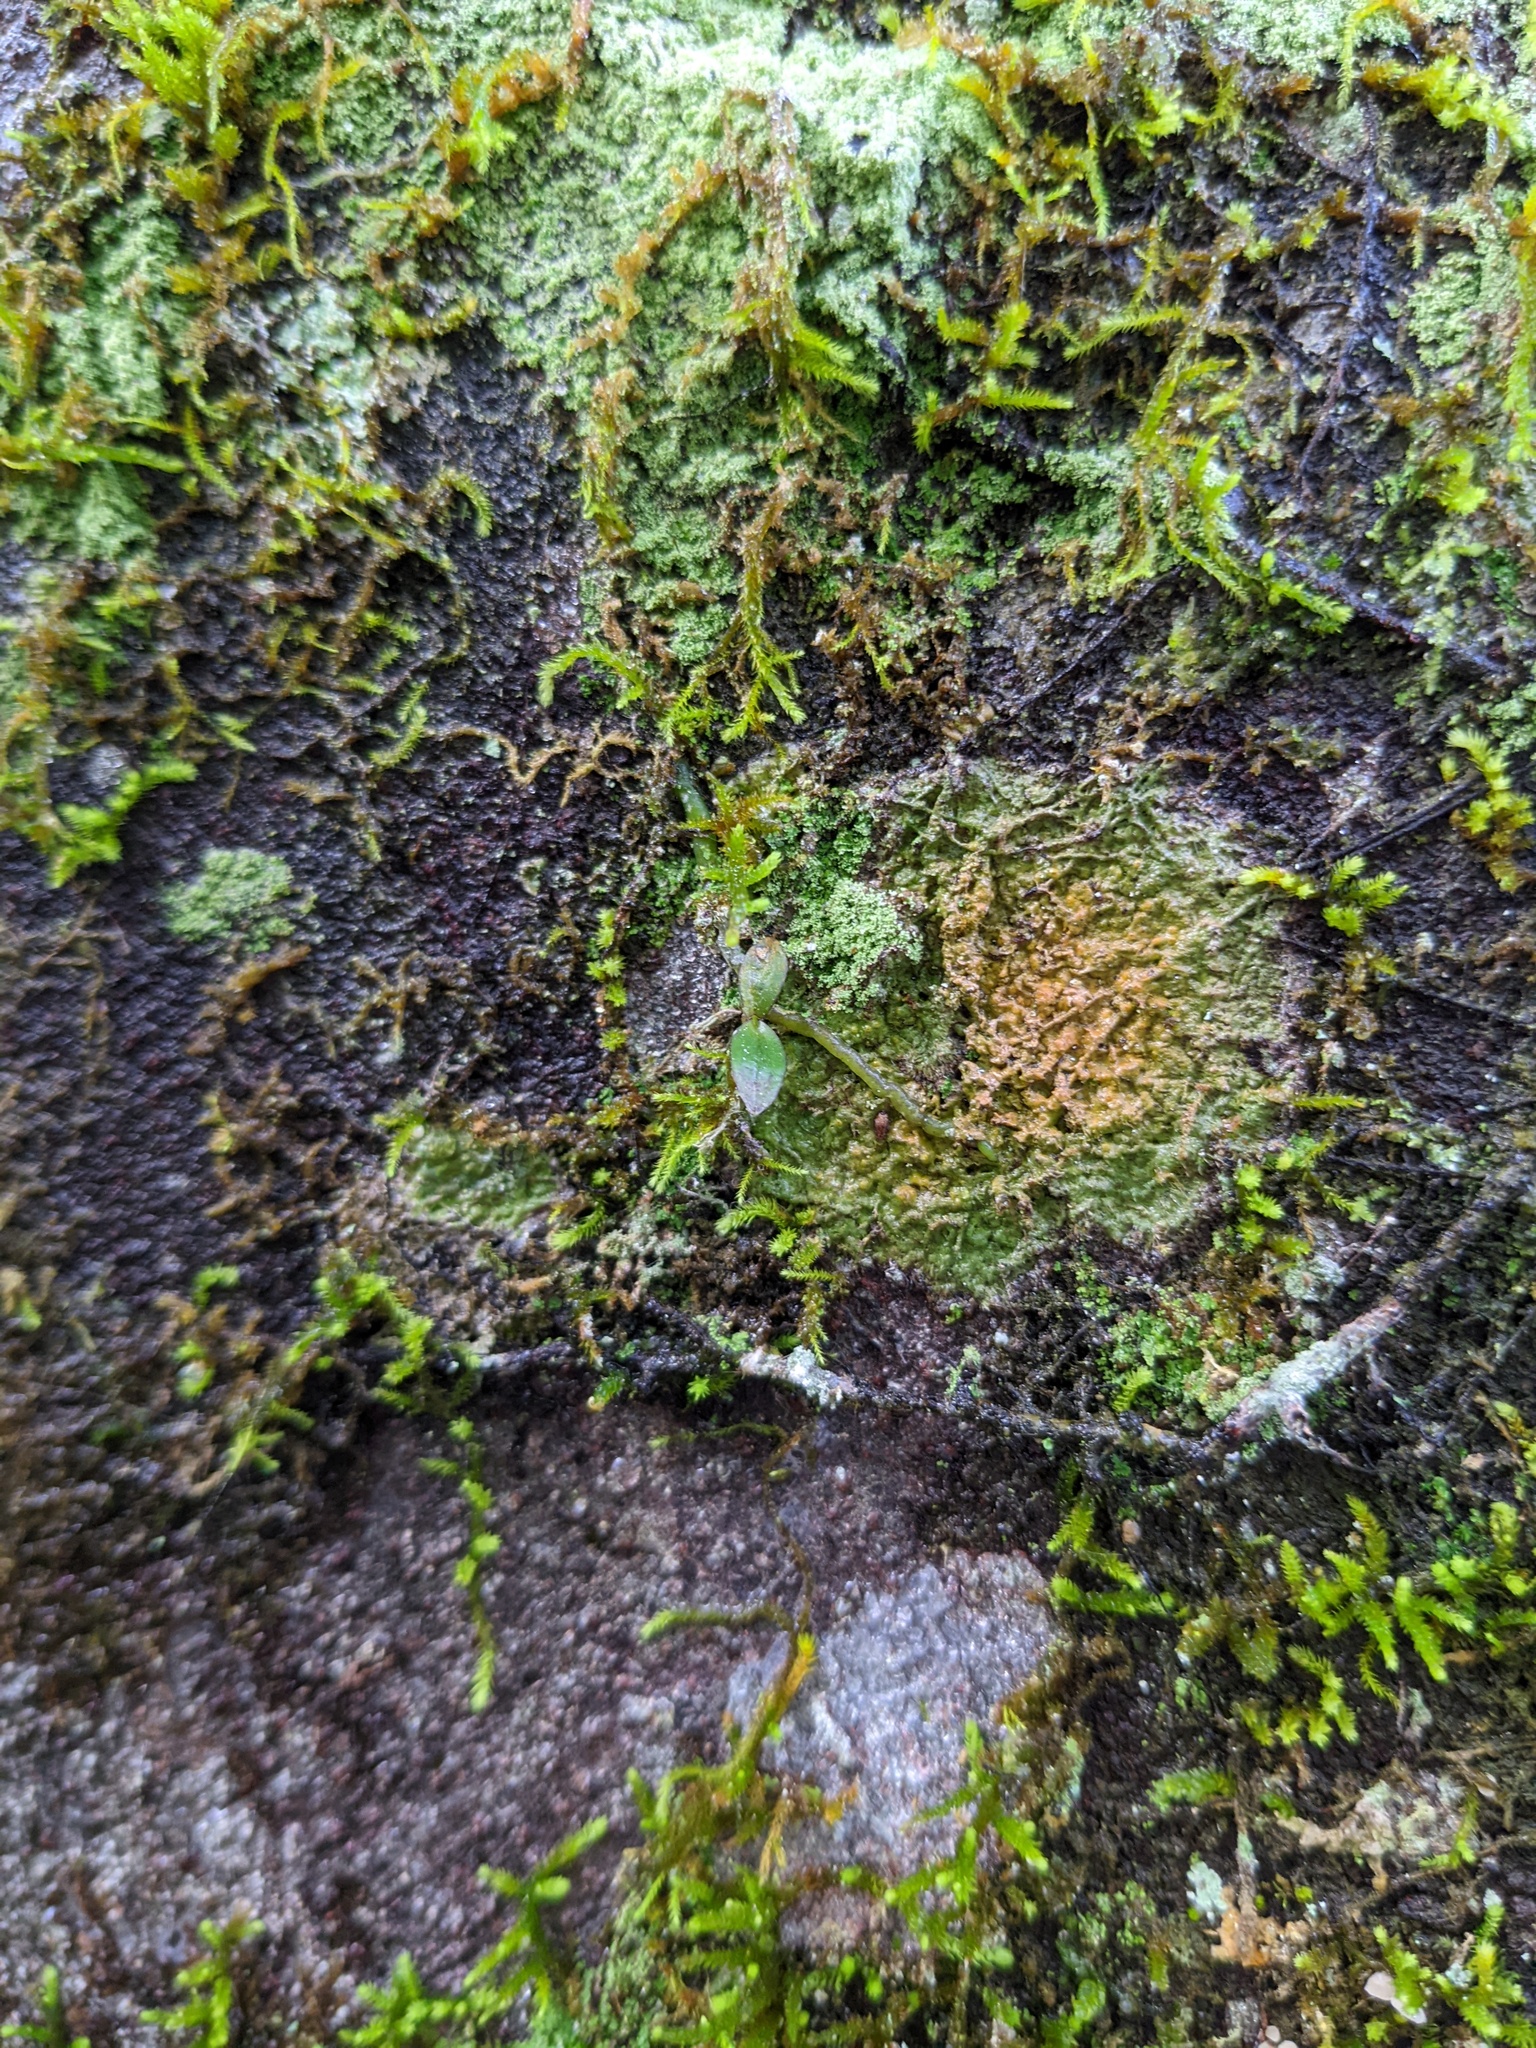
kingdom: Plantae
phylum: Tracheophyta
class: Liliopsida
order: Asparagales
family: Orchidaceae
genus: Drymoanthus
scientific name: Drymoanthus adversus
